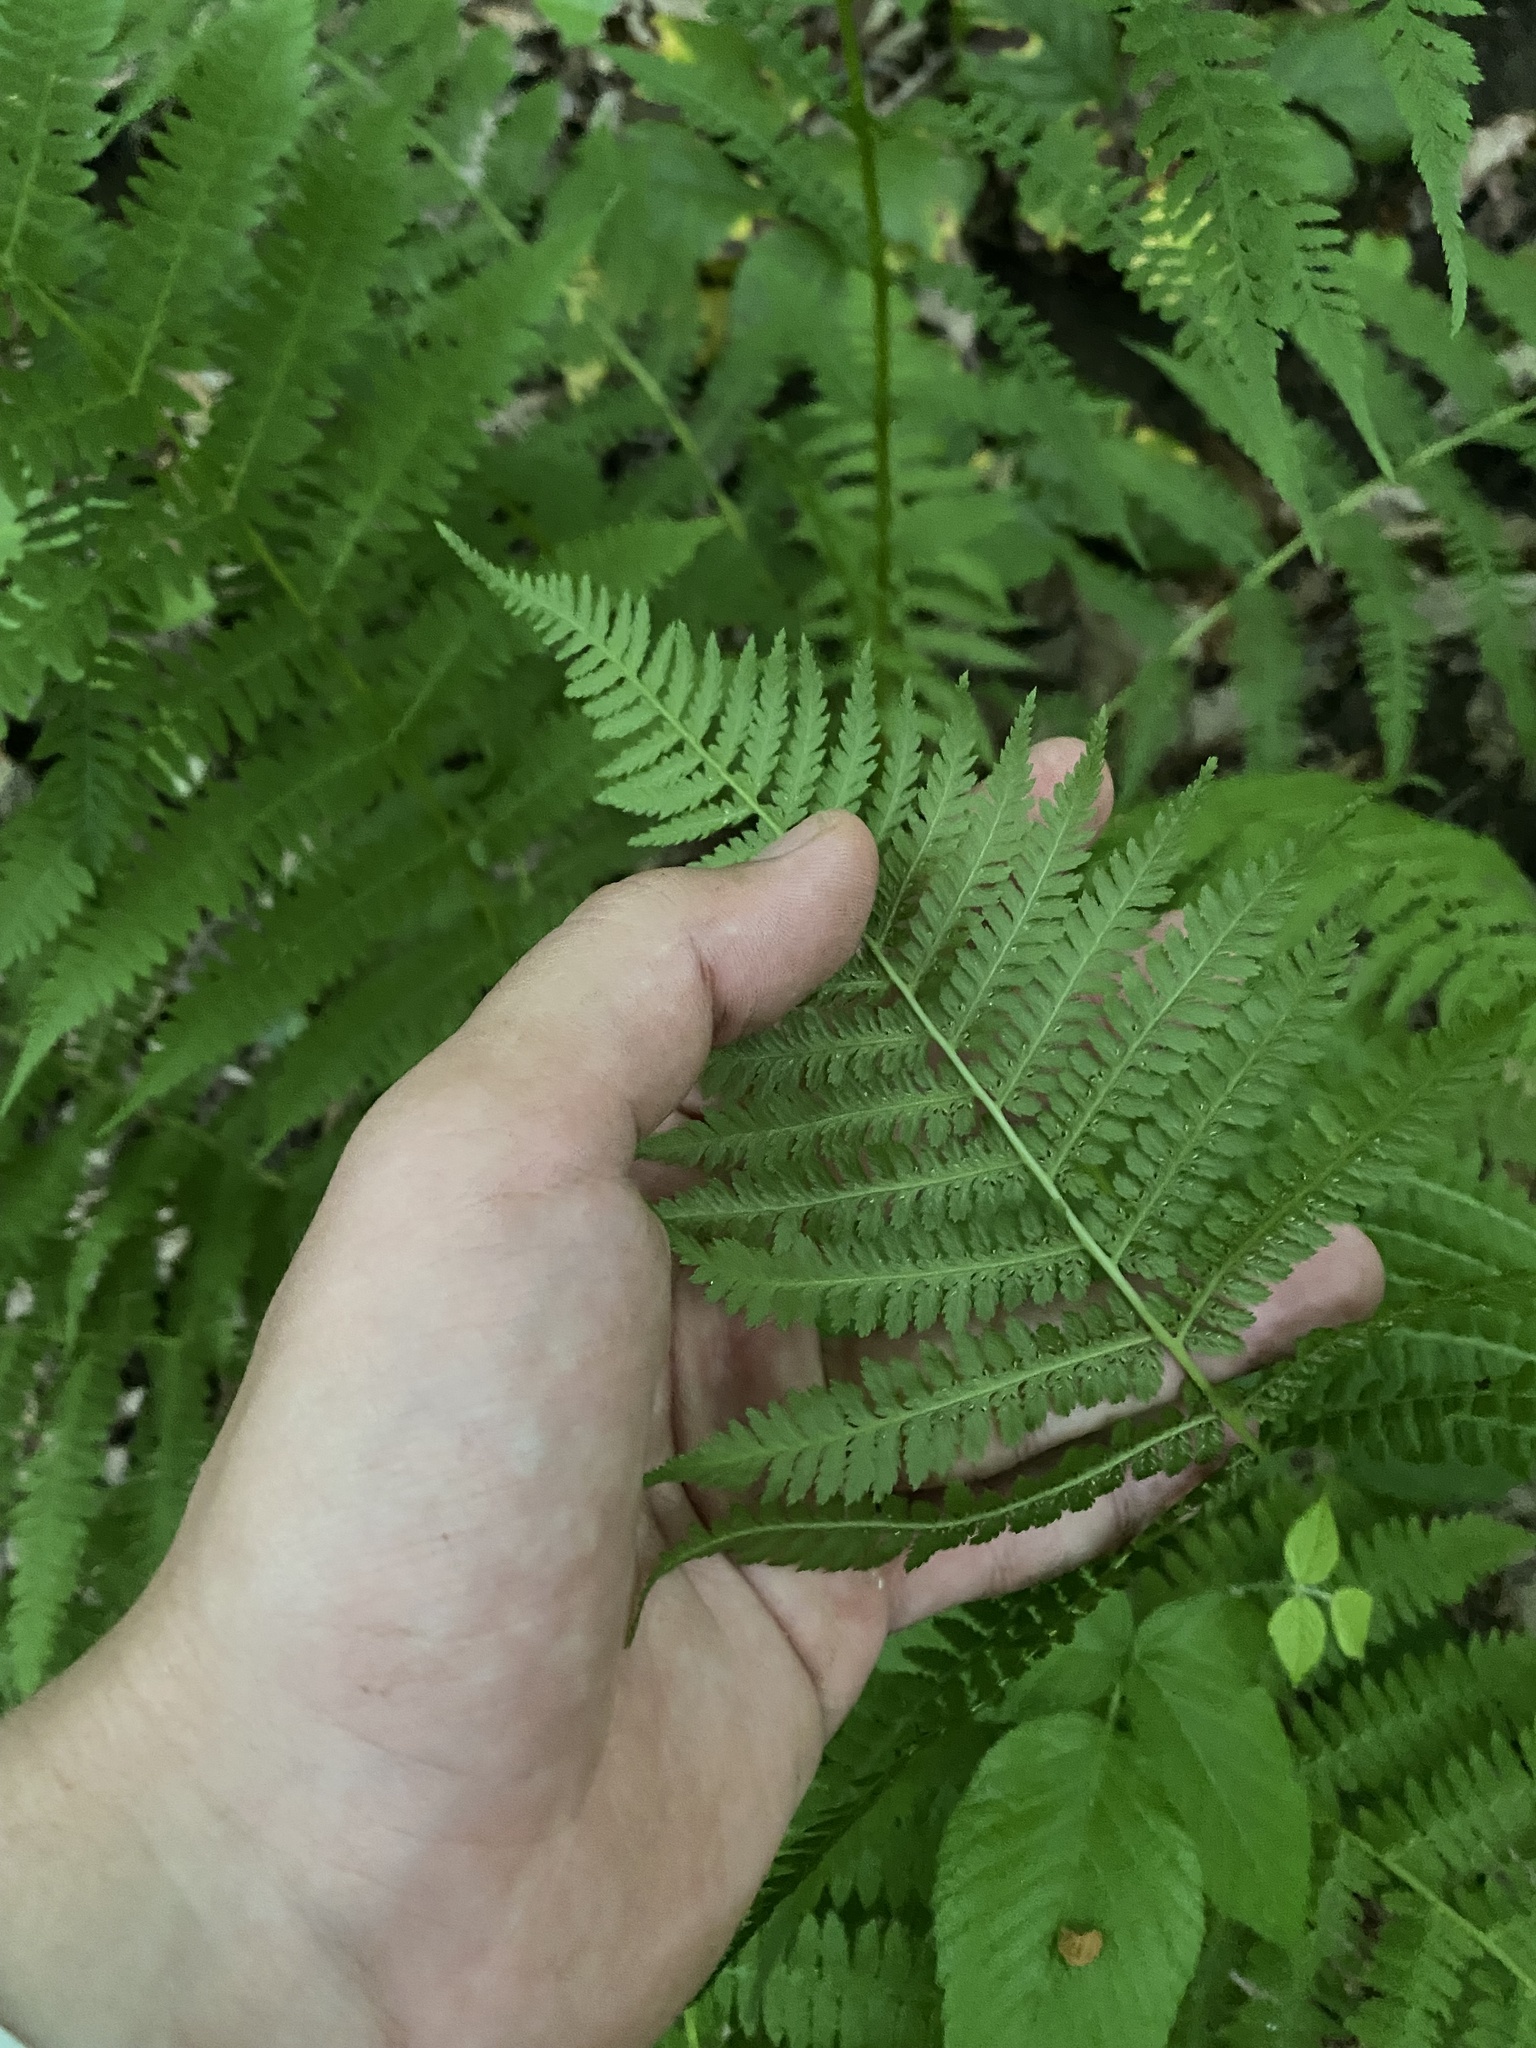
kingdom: Plantae
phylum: Tracheophyta
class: Polypodiopsida
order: Polypodiales
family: Athyriaceae
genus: Athyrium
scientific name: Athyrium filix-femina
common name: Lady fern
